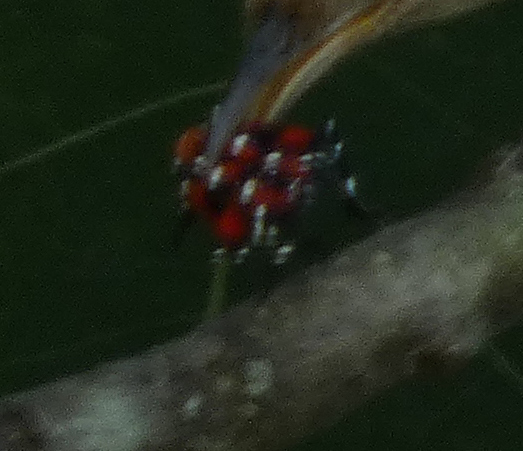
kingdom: Animalia
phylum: Arthropoda
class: Insecta
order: Hemiptera
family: Fulgoridae
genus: Lycorma
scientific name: Lycorma delicatula
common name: Spotted lanternfly
